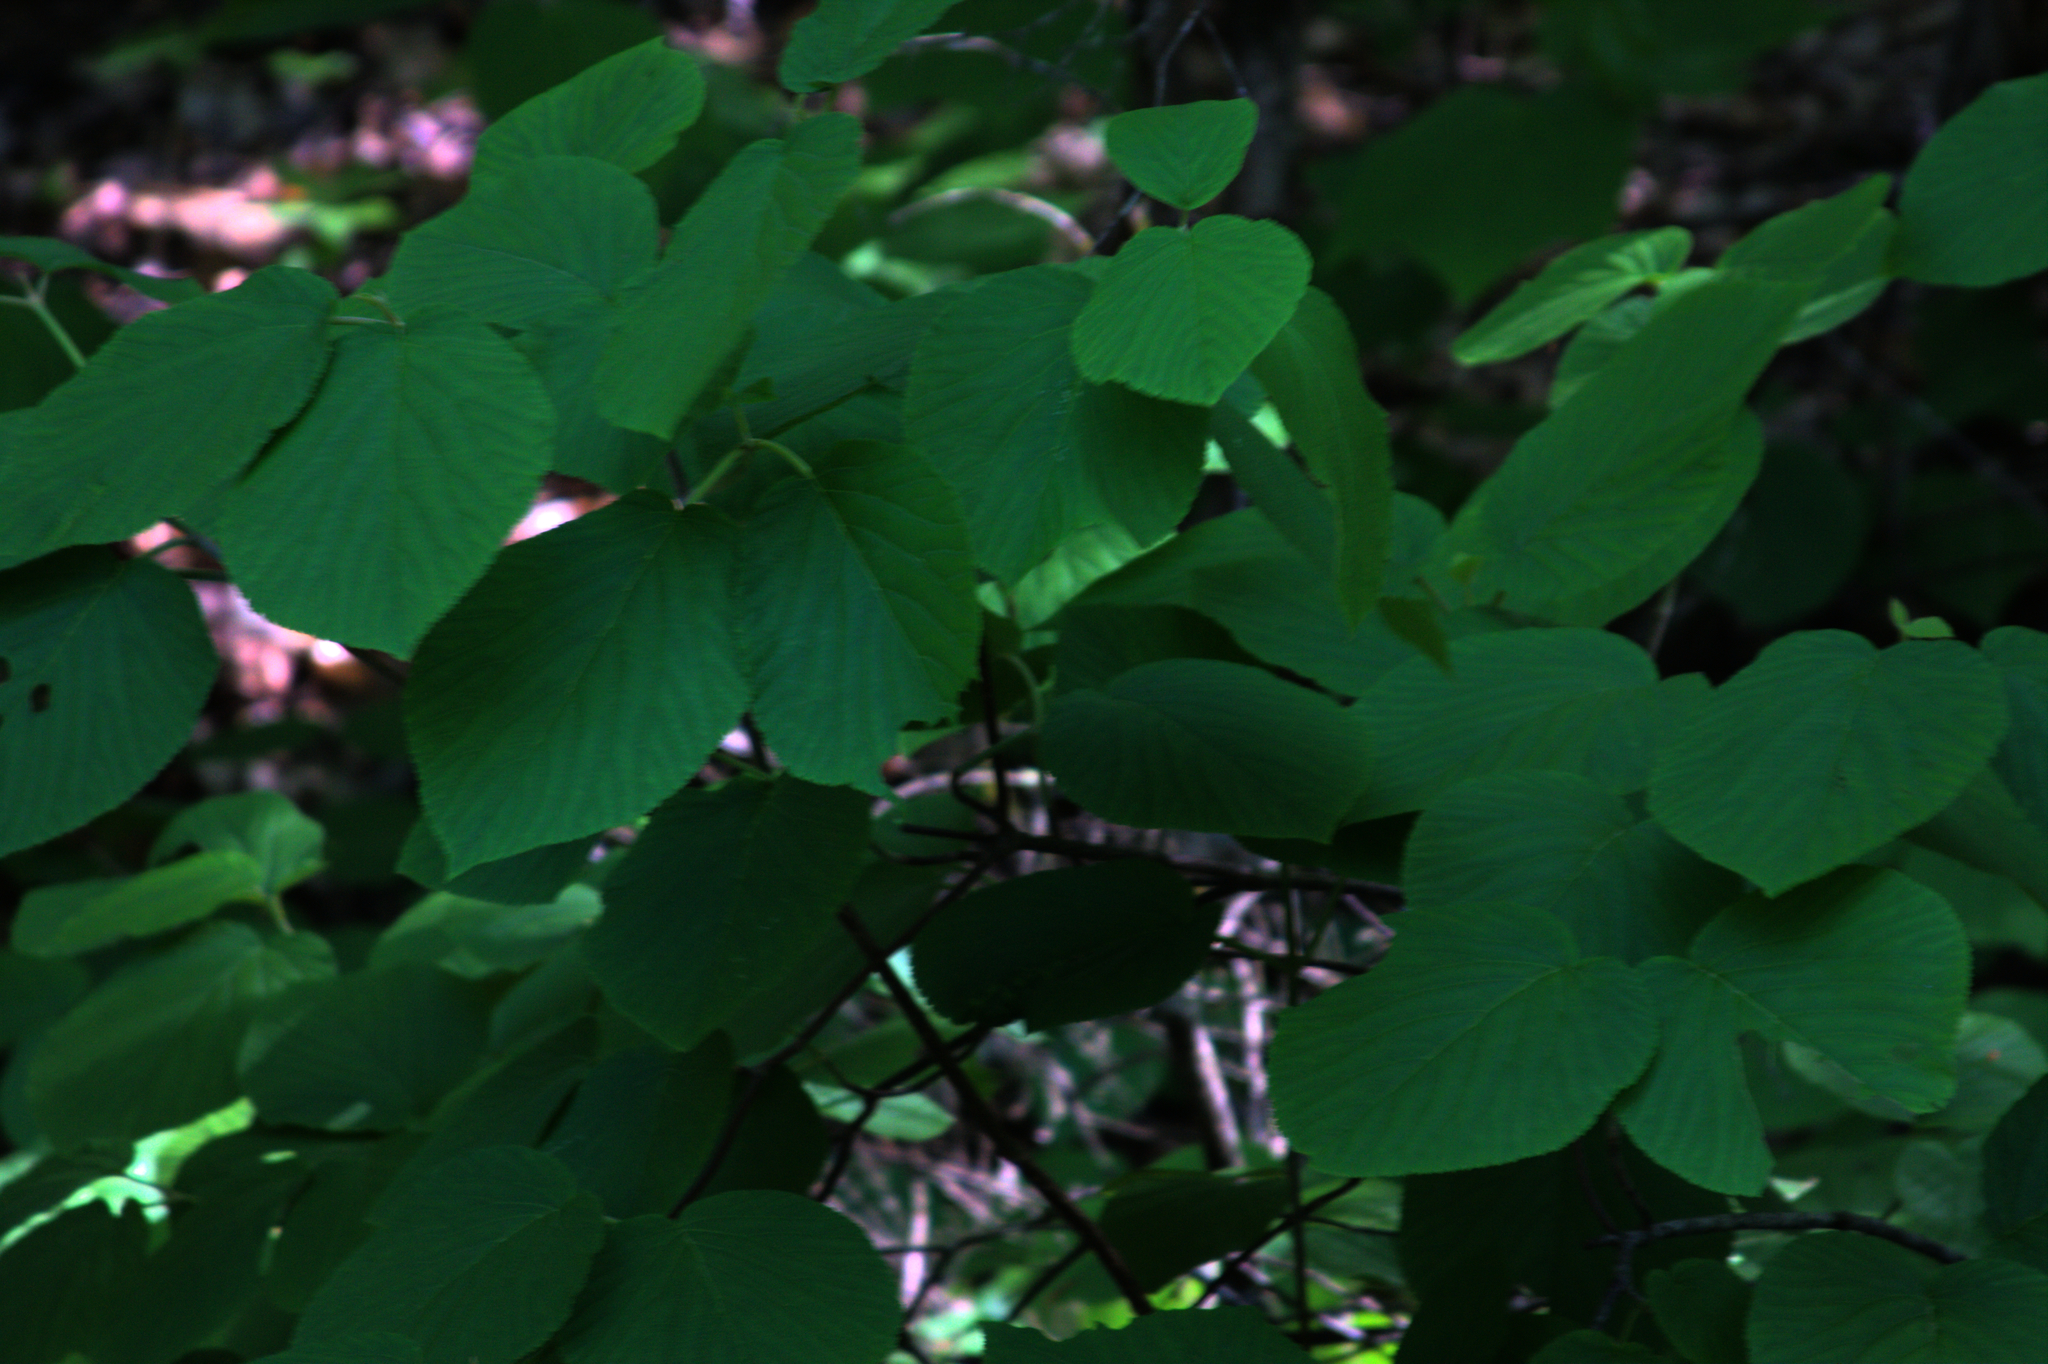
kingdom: Plantae
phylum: Tracheophyta
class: Magnoliopsida
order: Dipsacales
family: Viburnaceae
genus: Viburnum
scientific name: Viburnum lantanoides
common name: Hobblebush
